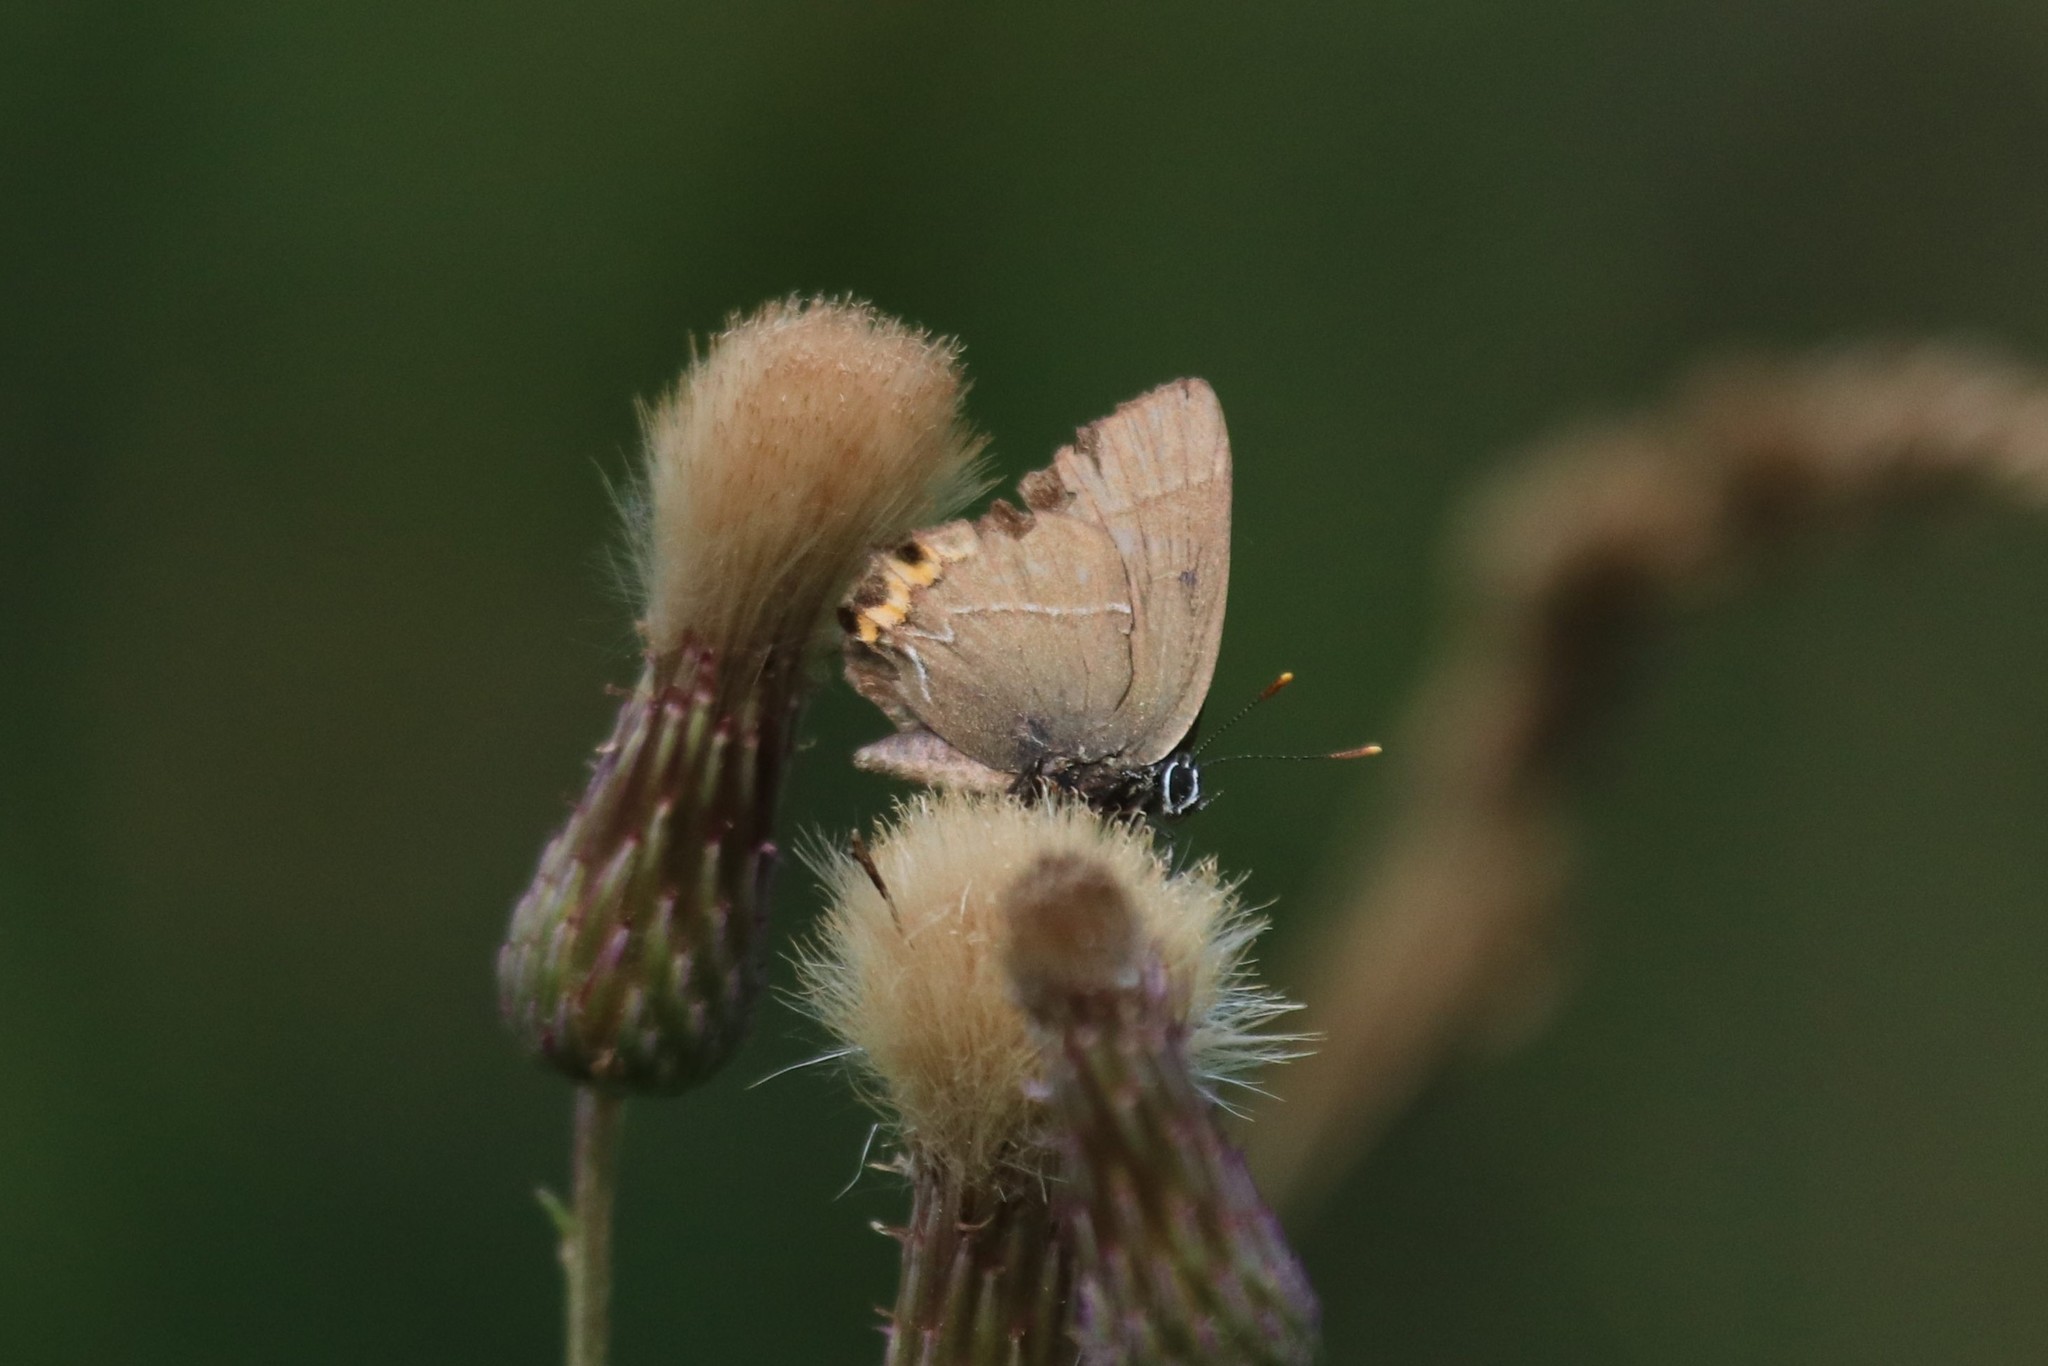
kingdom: Animalia
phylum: Arthropoda
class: Insecta
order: Lepidoptera
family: Lycaenidae
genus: Satyrium
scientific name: Satyrium w-album
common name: White-letter hairstreak
